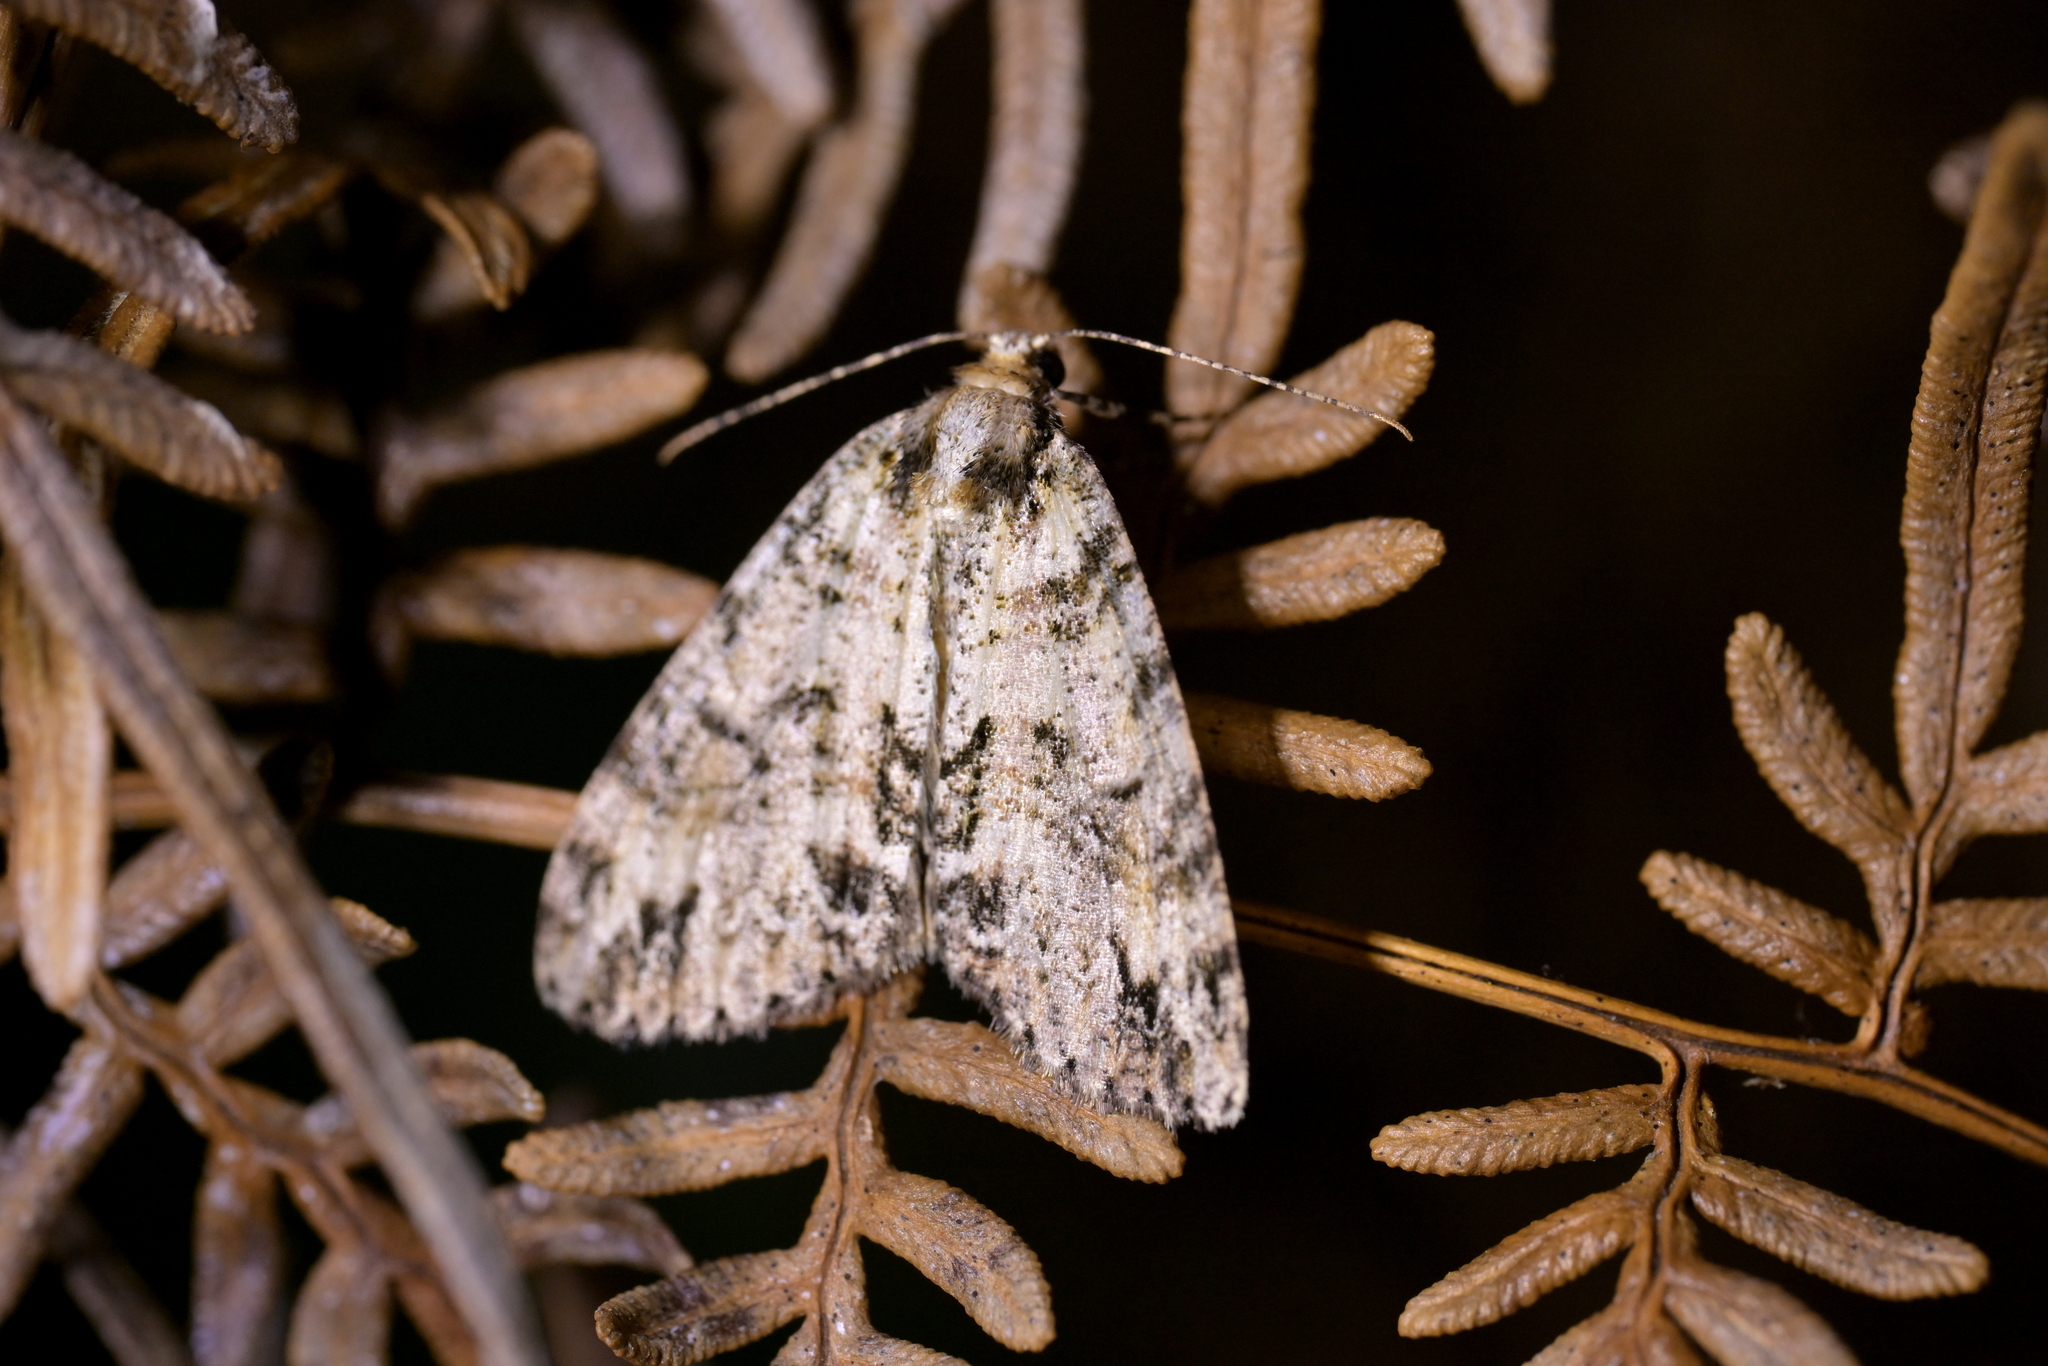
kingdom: Animalia
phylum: Arthropoda
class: Insecta
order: Lepidoptera
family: Geometridae
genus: Pseudocoremia
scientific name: Pseudocoremia suavis
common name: Common forest looper
